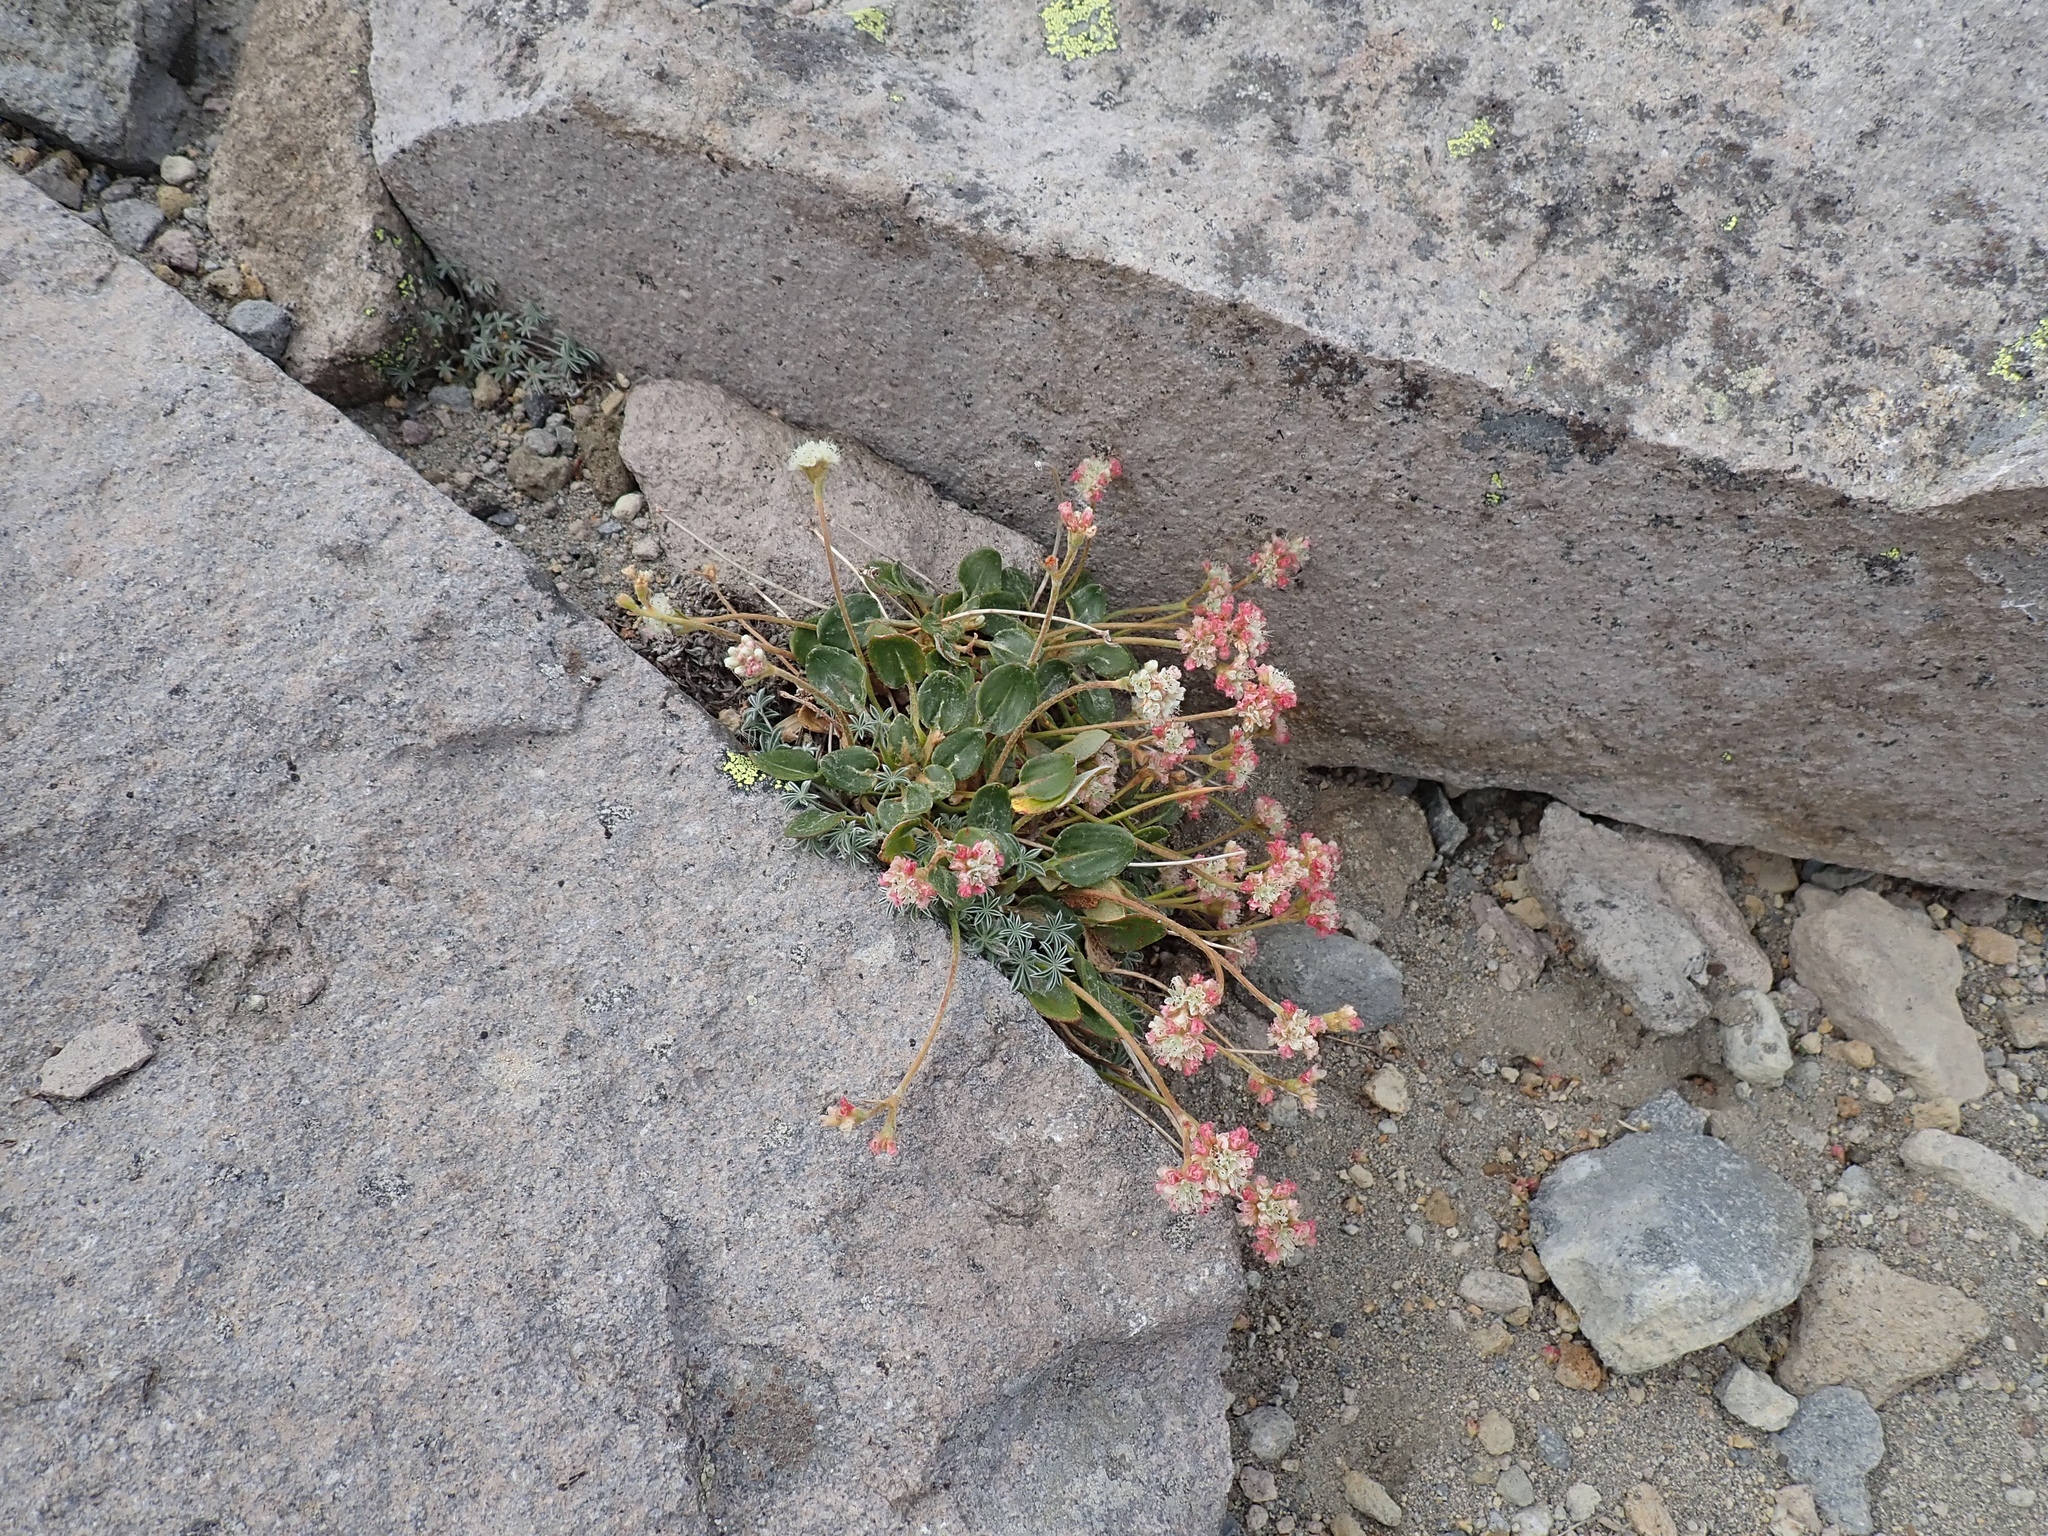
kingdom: Plantae
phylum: Tracheophyta
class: Magnoliopsida
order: Caryophyllales
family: Polygonaceae
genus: Eriogonum
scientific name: Eriogonum pyrolifolium
